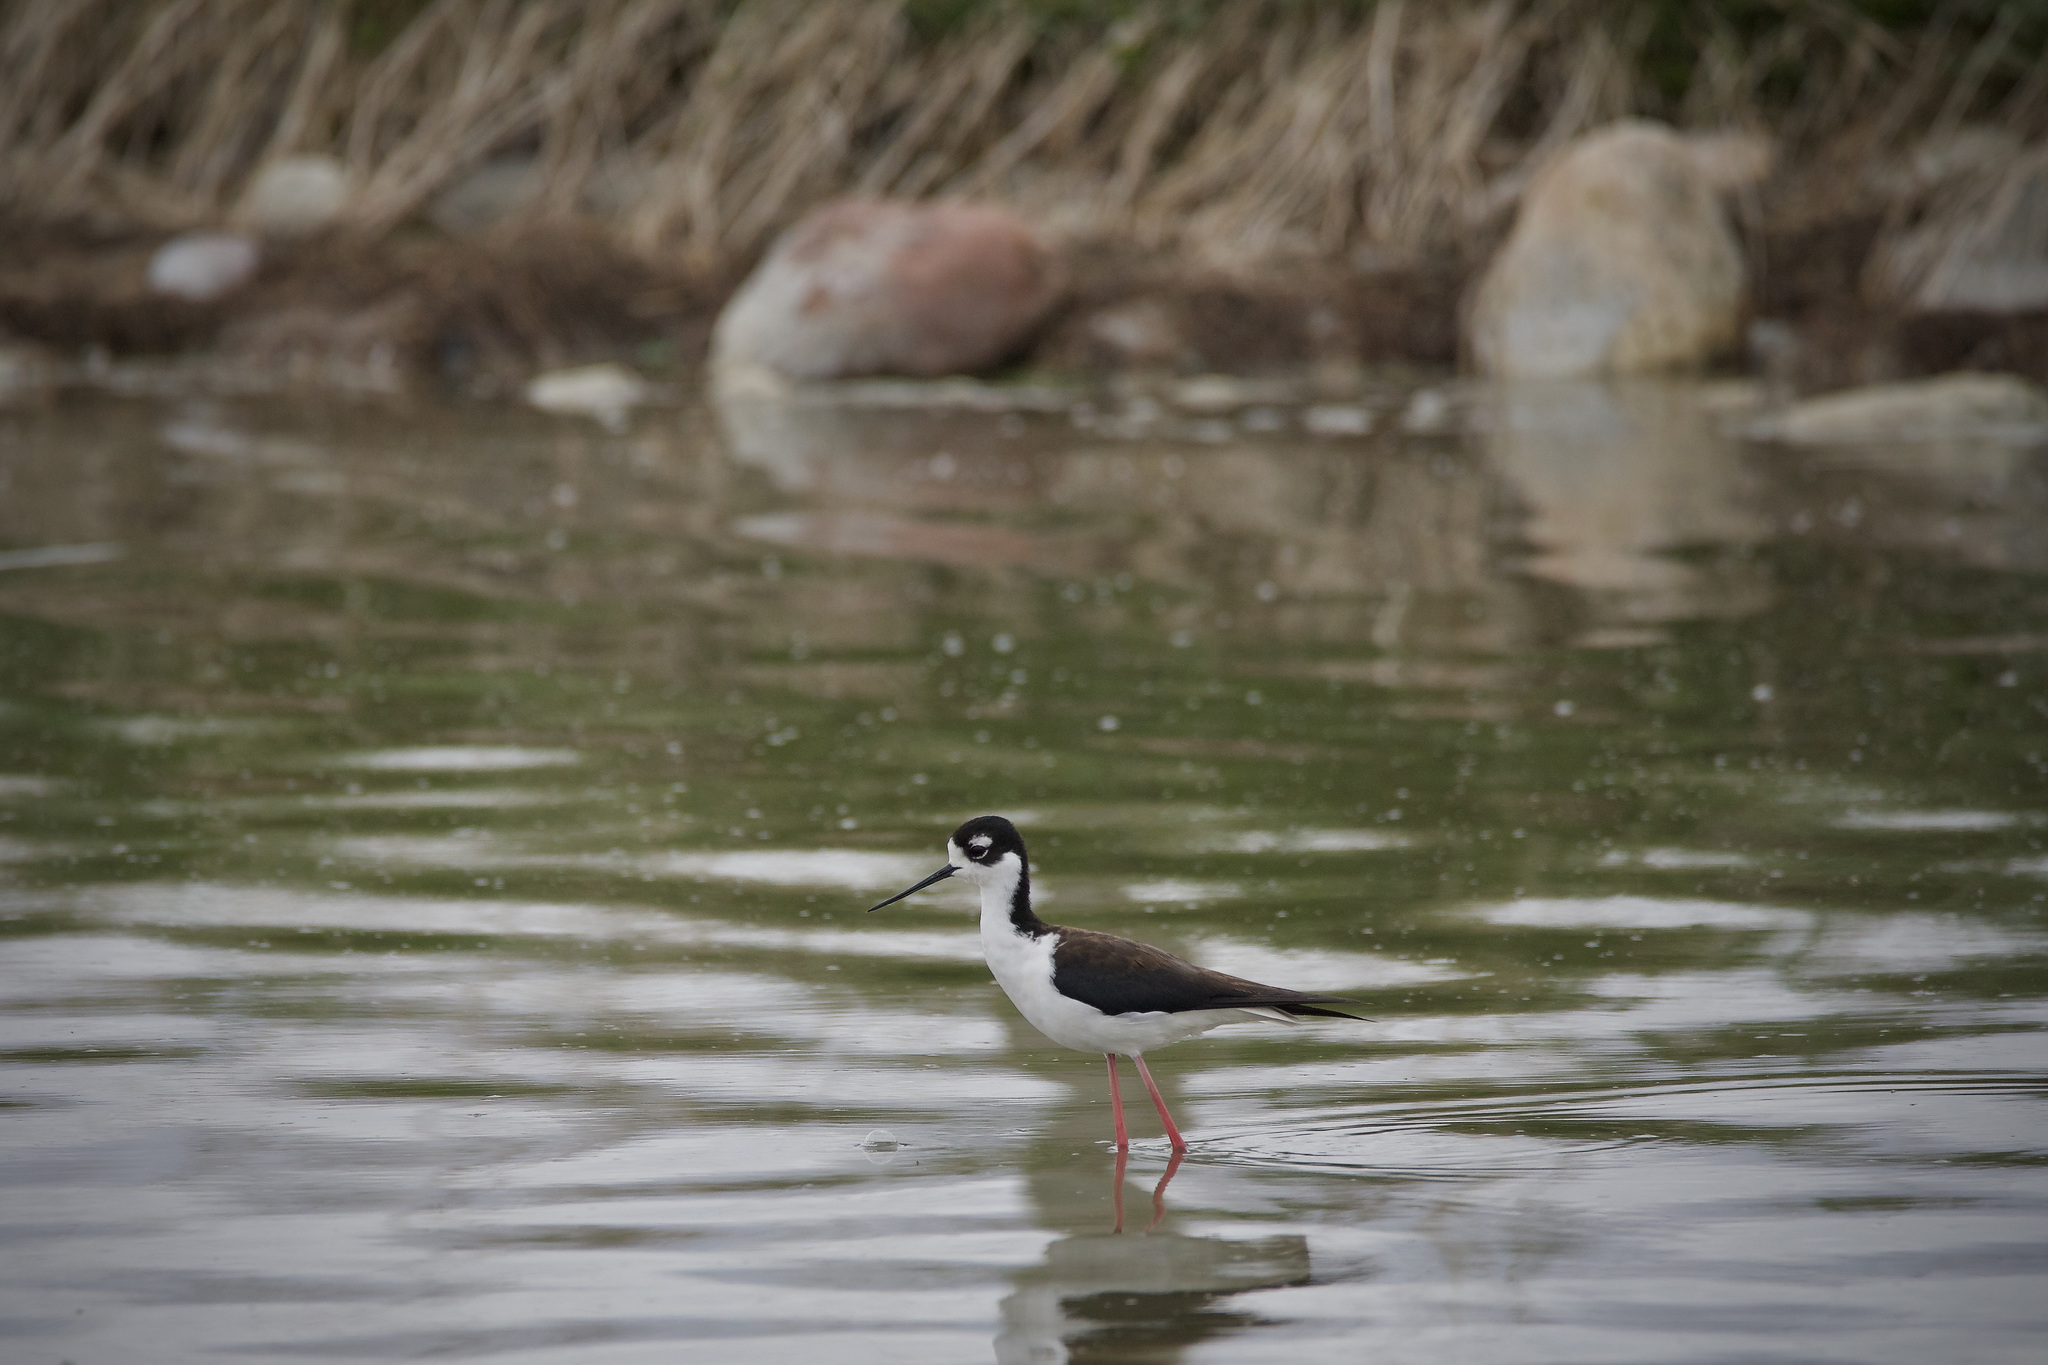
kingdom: Animalia
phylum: Chordata
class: Aves
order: Charadriiformes
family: Recurvirostridae
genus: Himantopus
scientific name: Himantopus mexicanus
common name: Black-necked stilt
